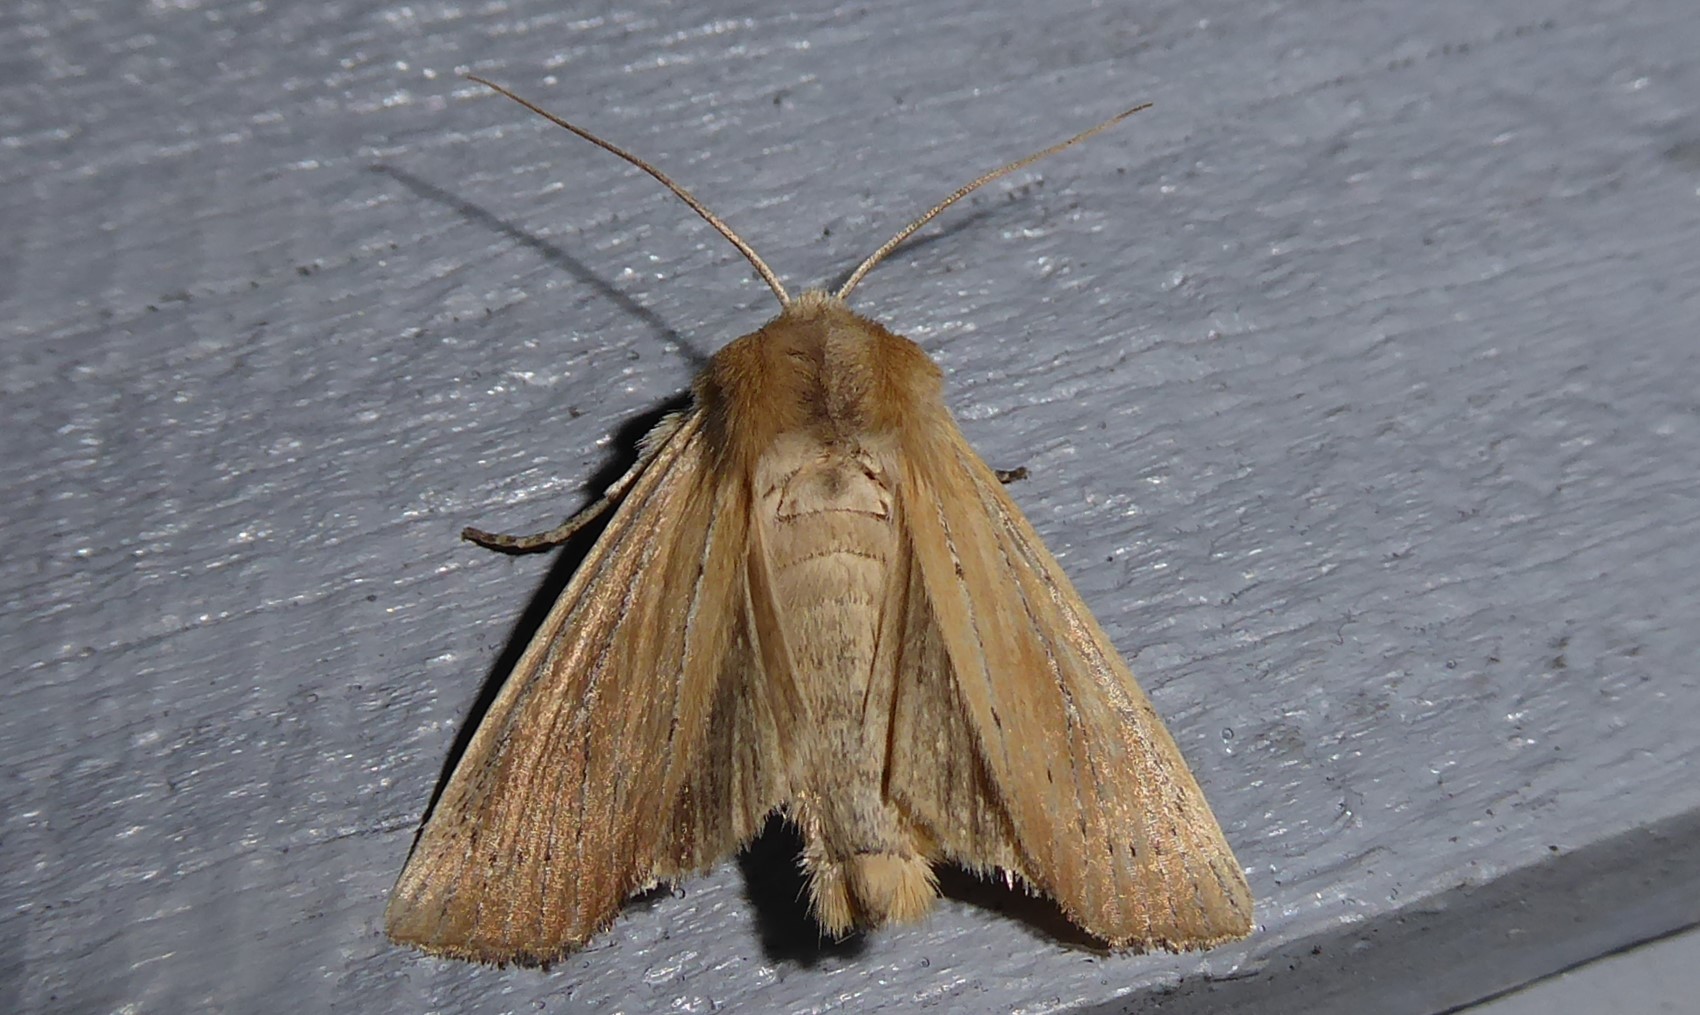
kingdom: Animalia
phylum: Arthropoda
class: Insecta
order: Lepidoptera
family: Noctuidae
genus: Ichneutica
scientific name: Ichneutica blenheimensis
